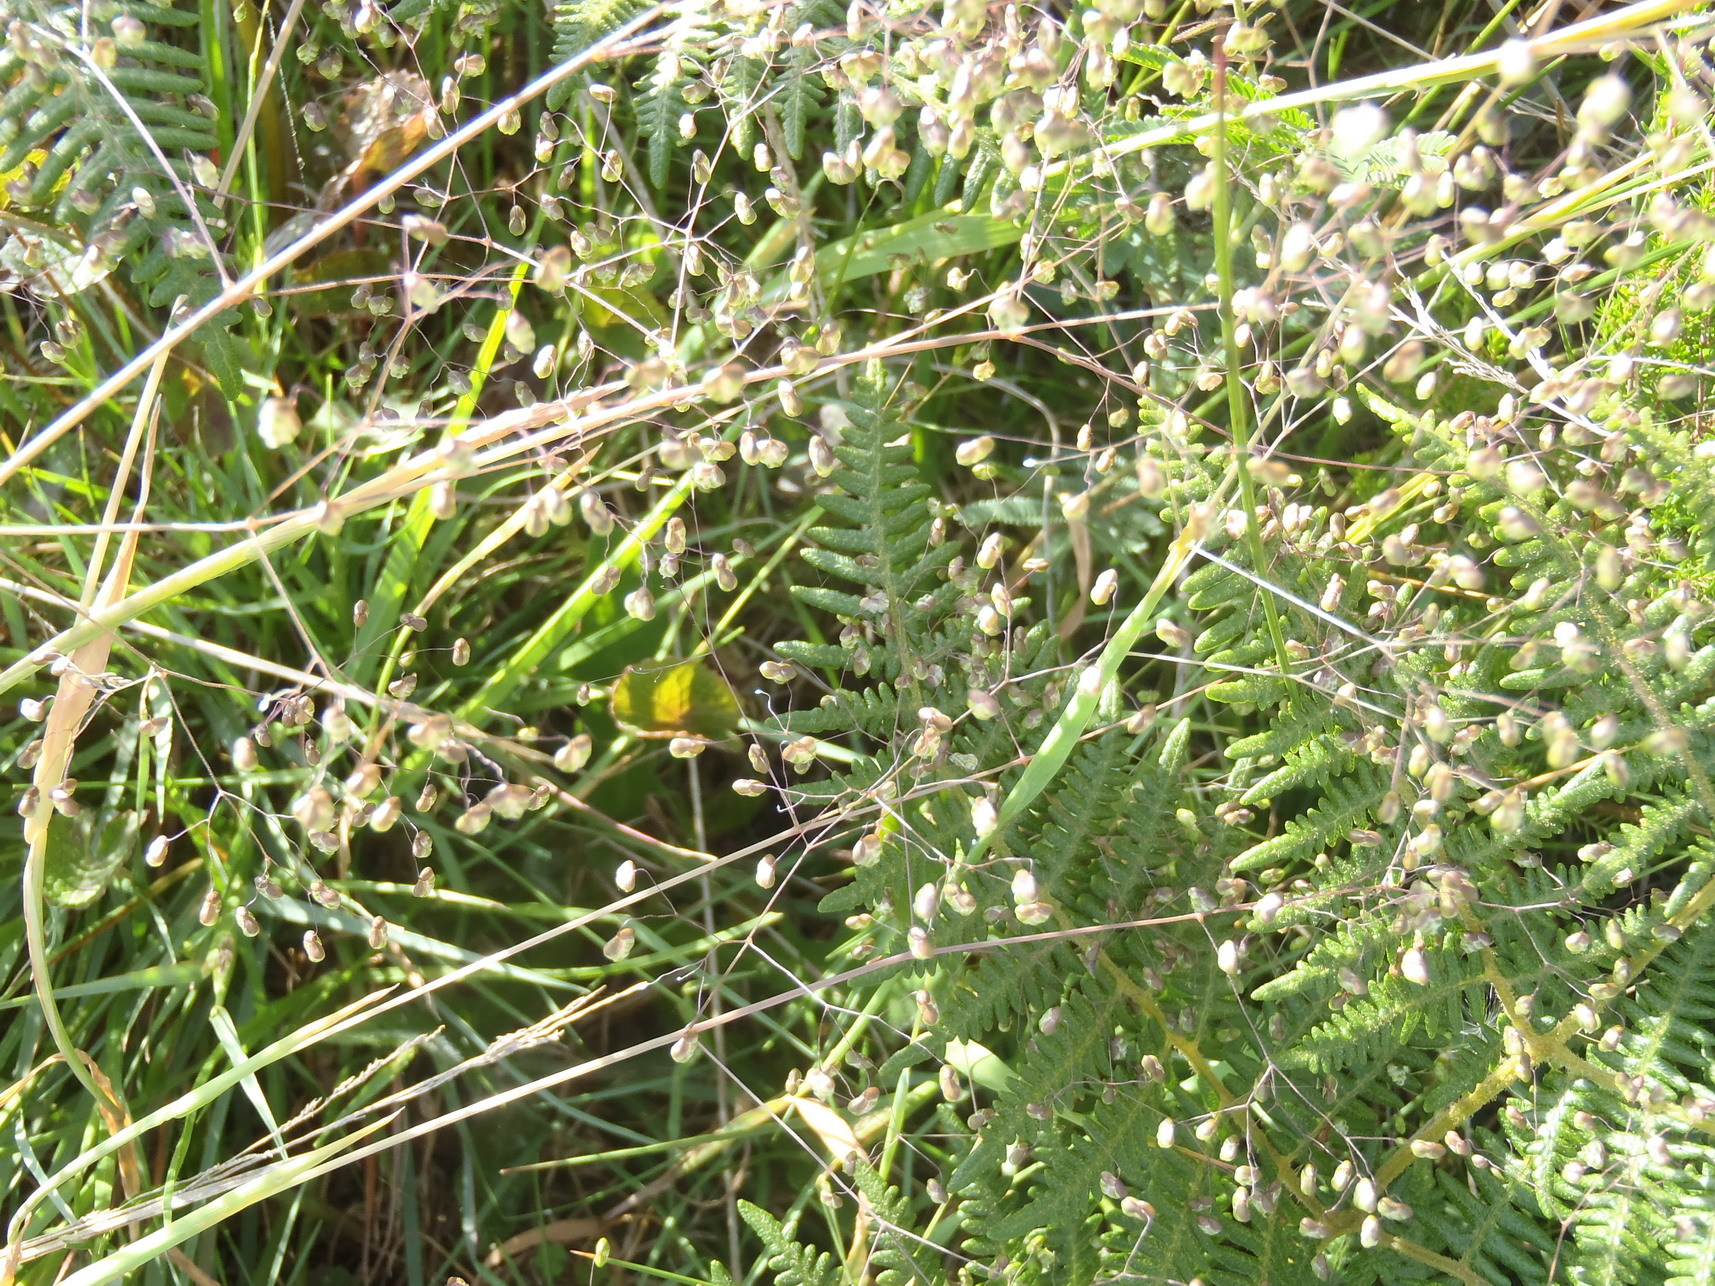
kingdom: Plantae
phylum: Tracheophyta
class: Liliopsida
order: Poales
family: Poaceae
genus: Briza
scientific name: Briza minor
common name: Lesser quaking-grass
